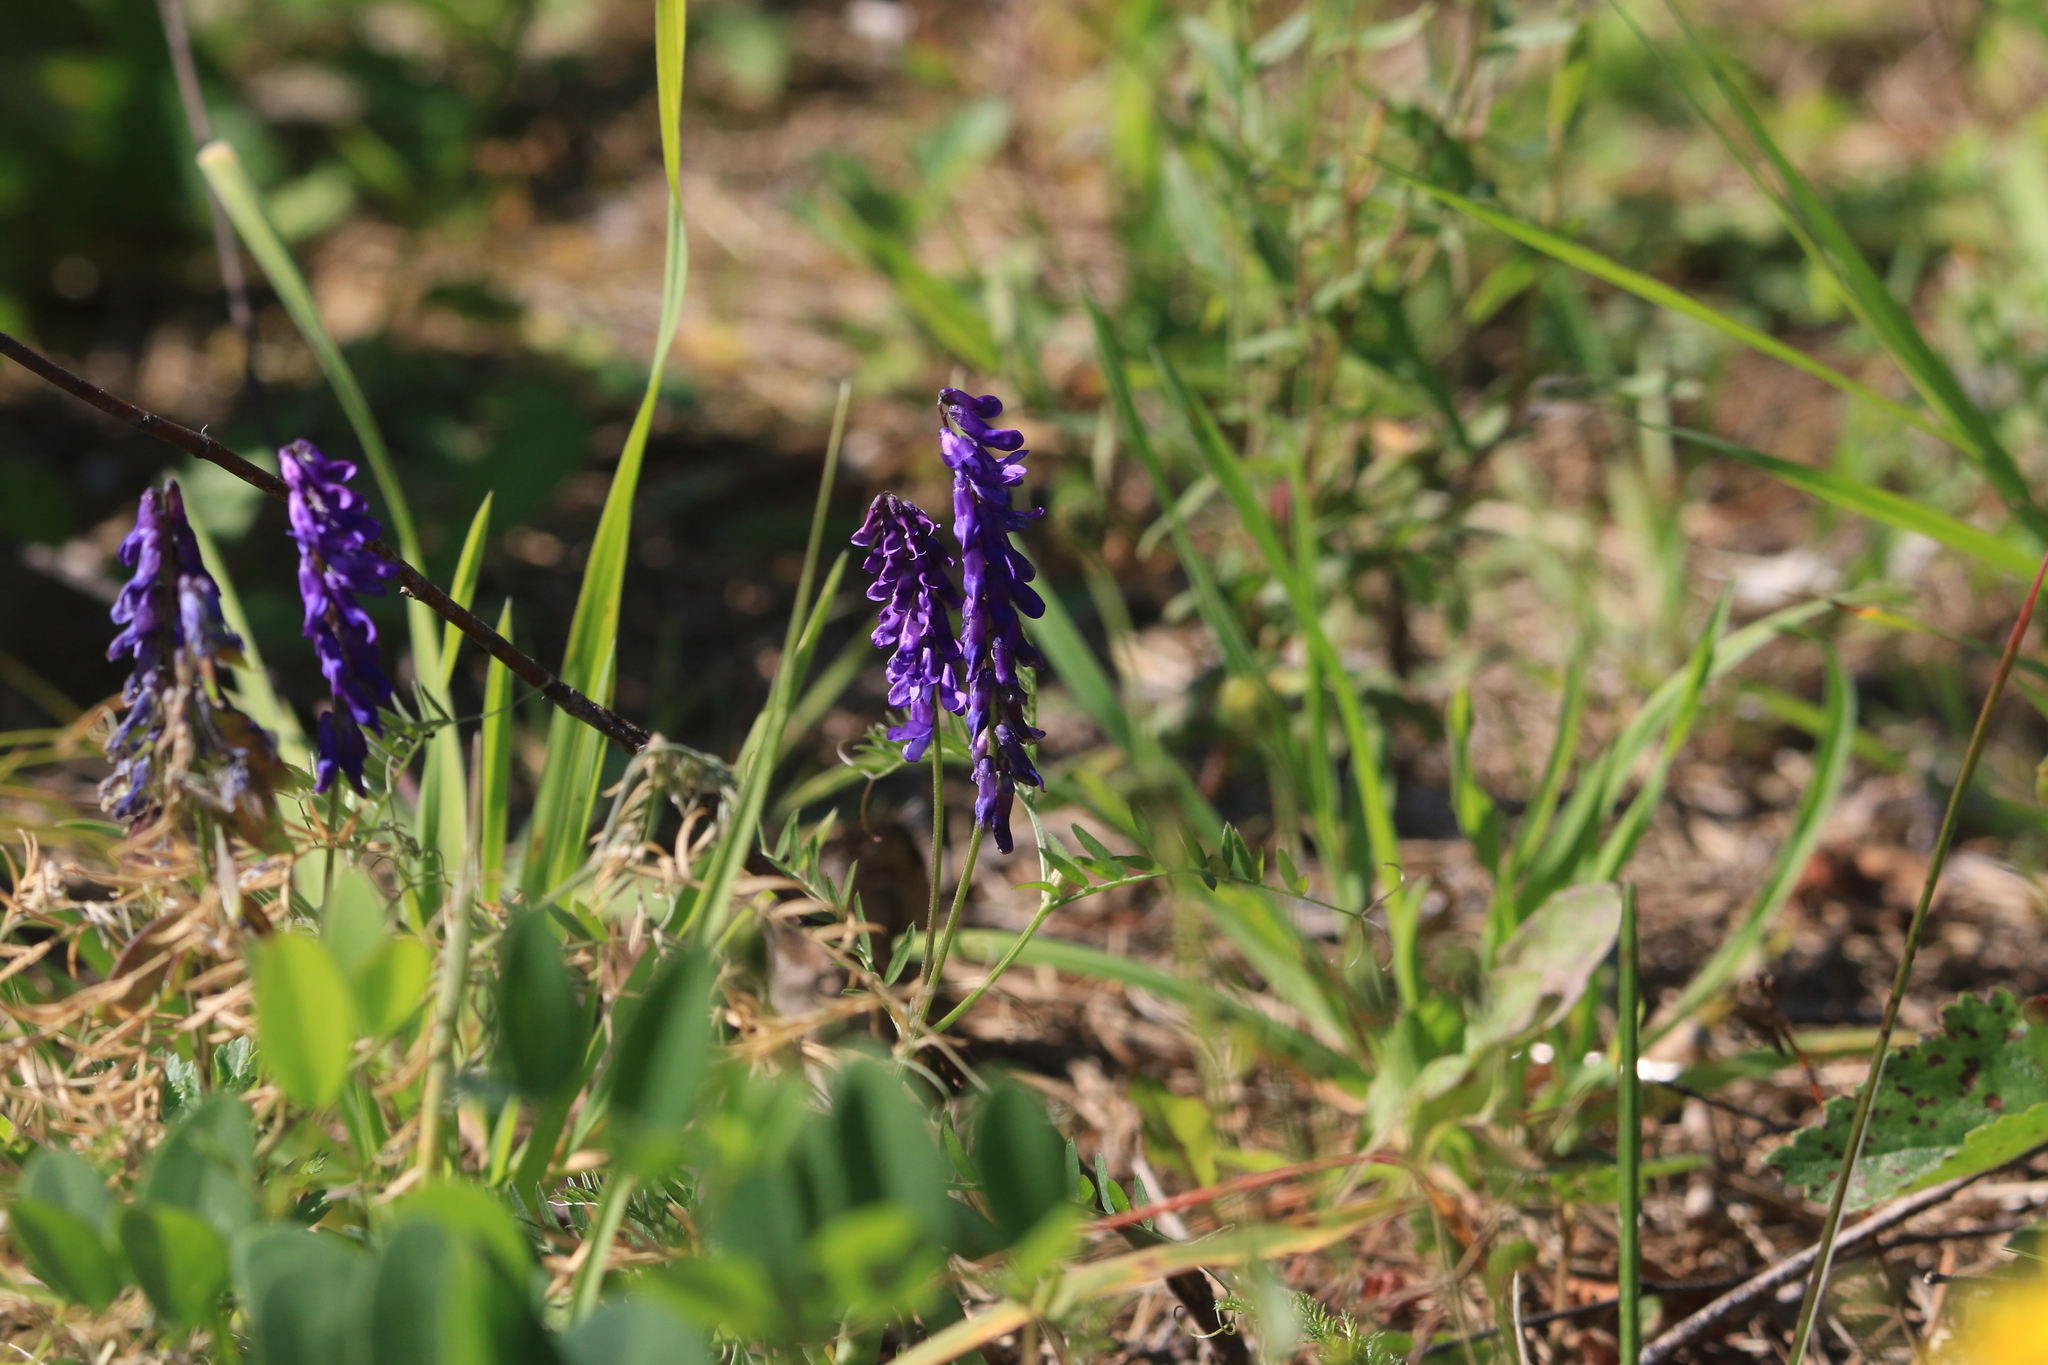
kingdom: Plantae
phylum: Tracheophyta
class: Magnoliopsida
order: Fabales
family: Fabaceae
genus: Vicia
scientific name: Vicia cracca
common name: Bird vetch
